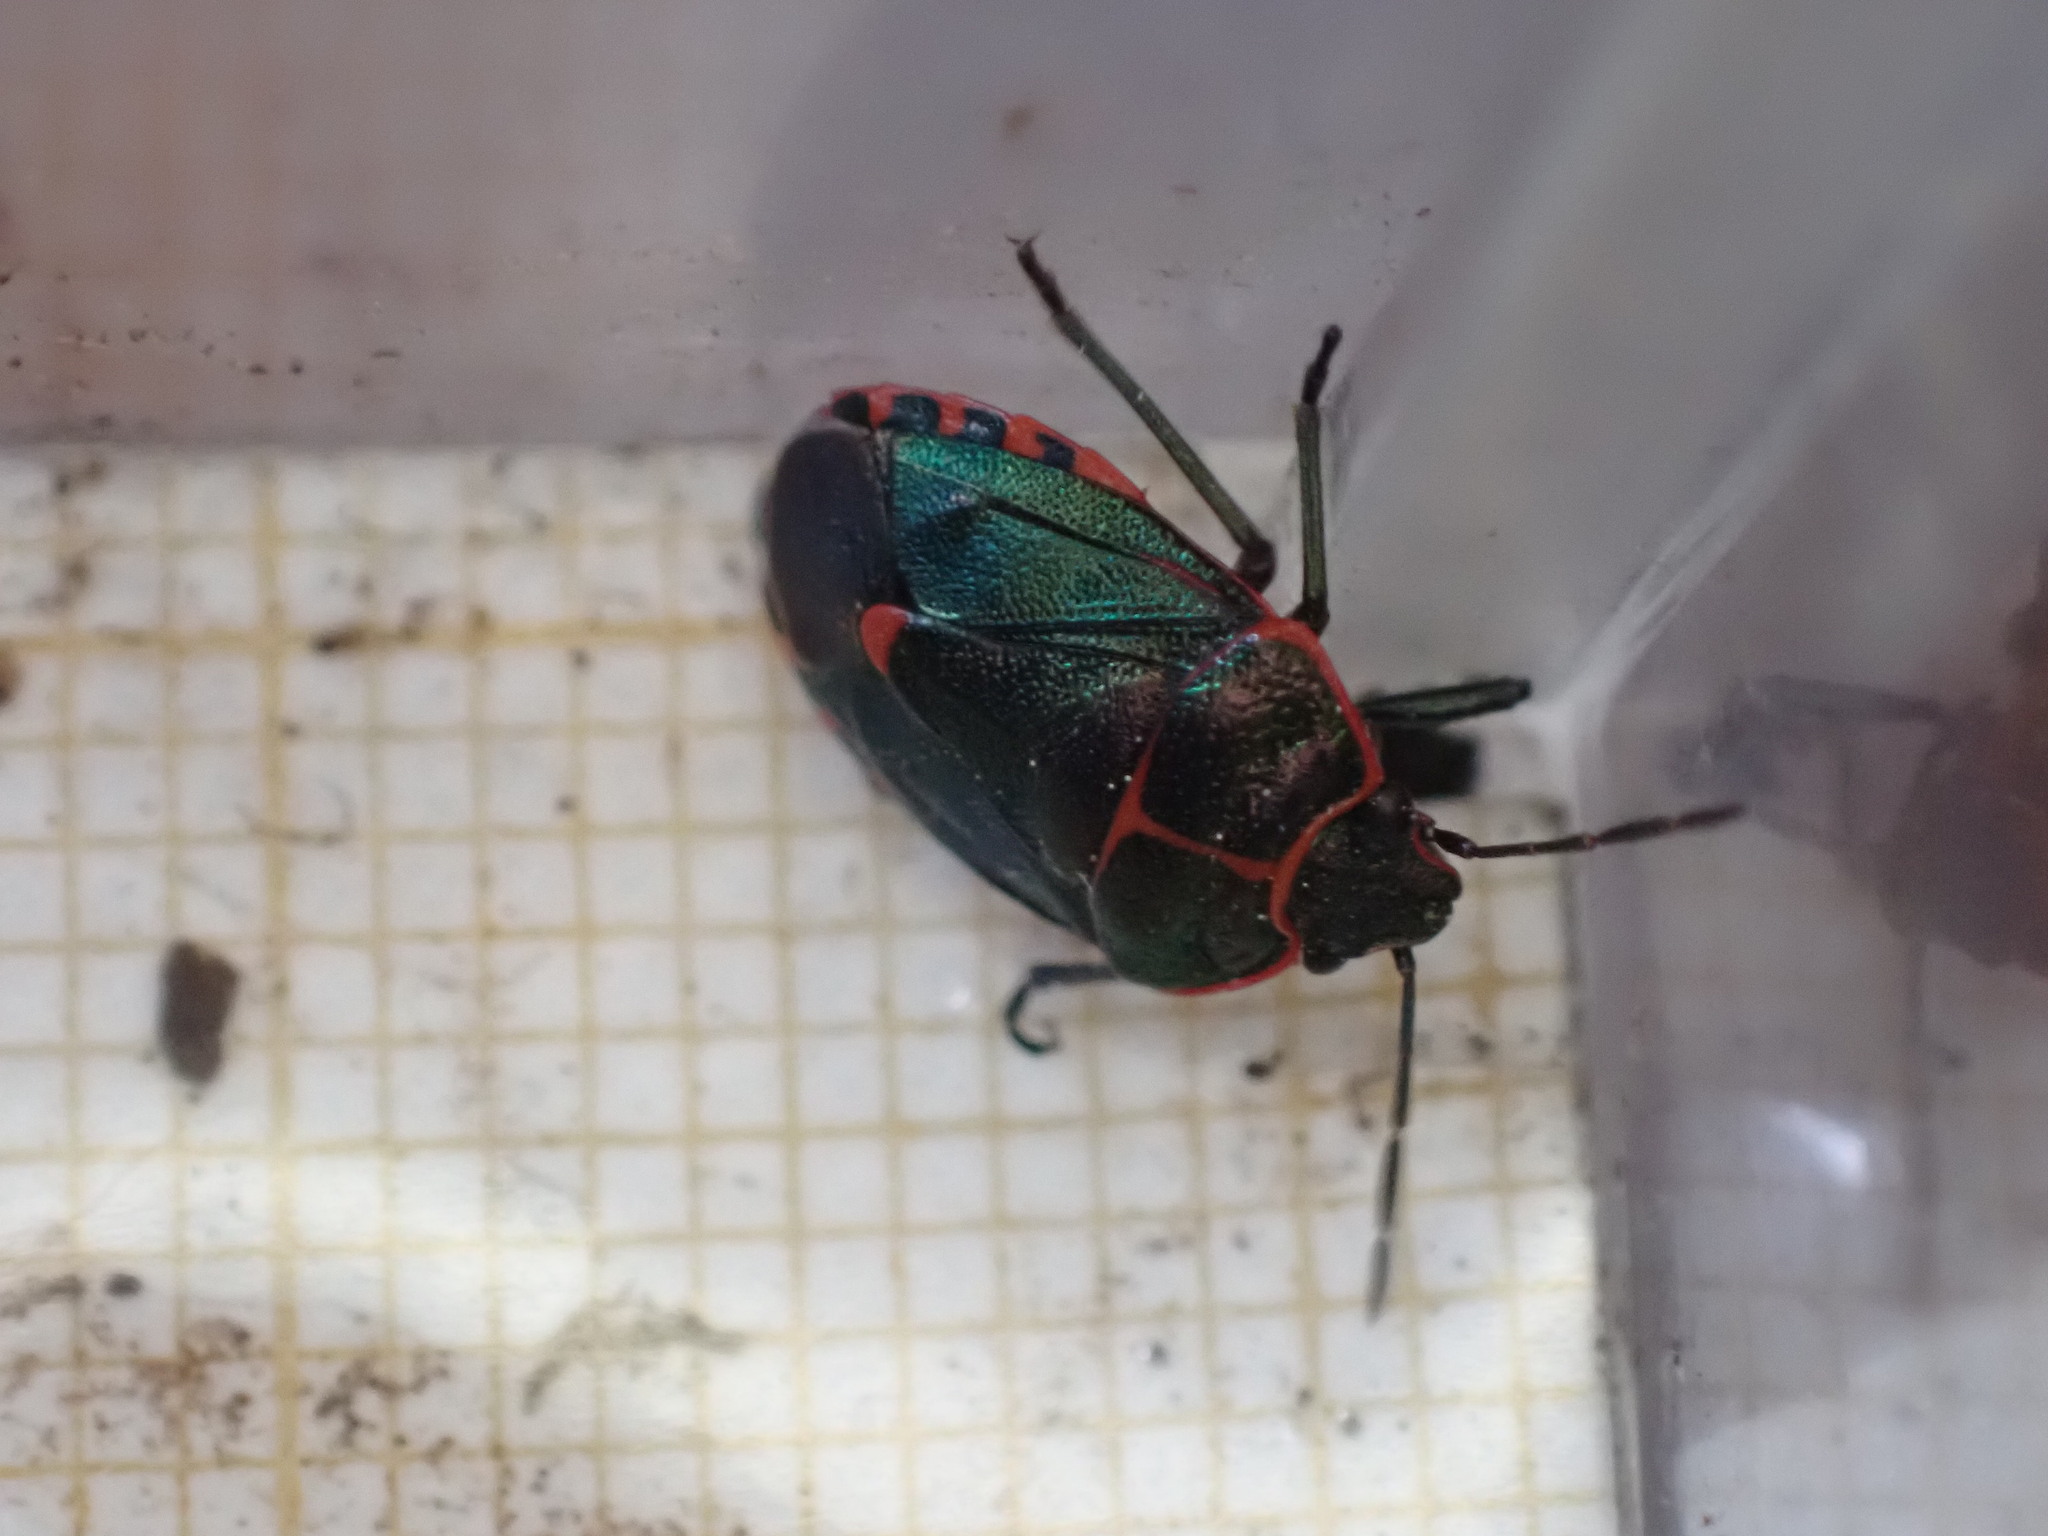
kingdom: Animalia
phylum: Arthropoda
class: Insecta
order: Hemiptera
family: Pentatomidae
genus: Eurydema
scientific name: Eurydema rotundicollis
